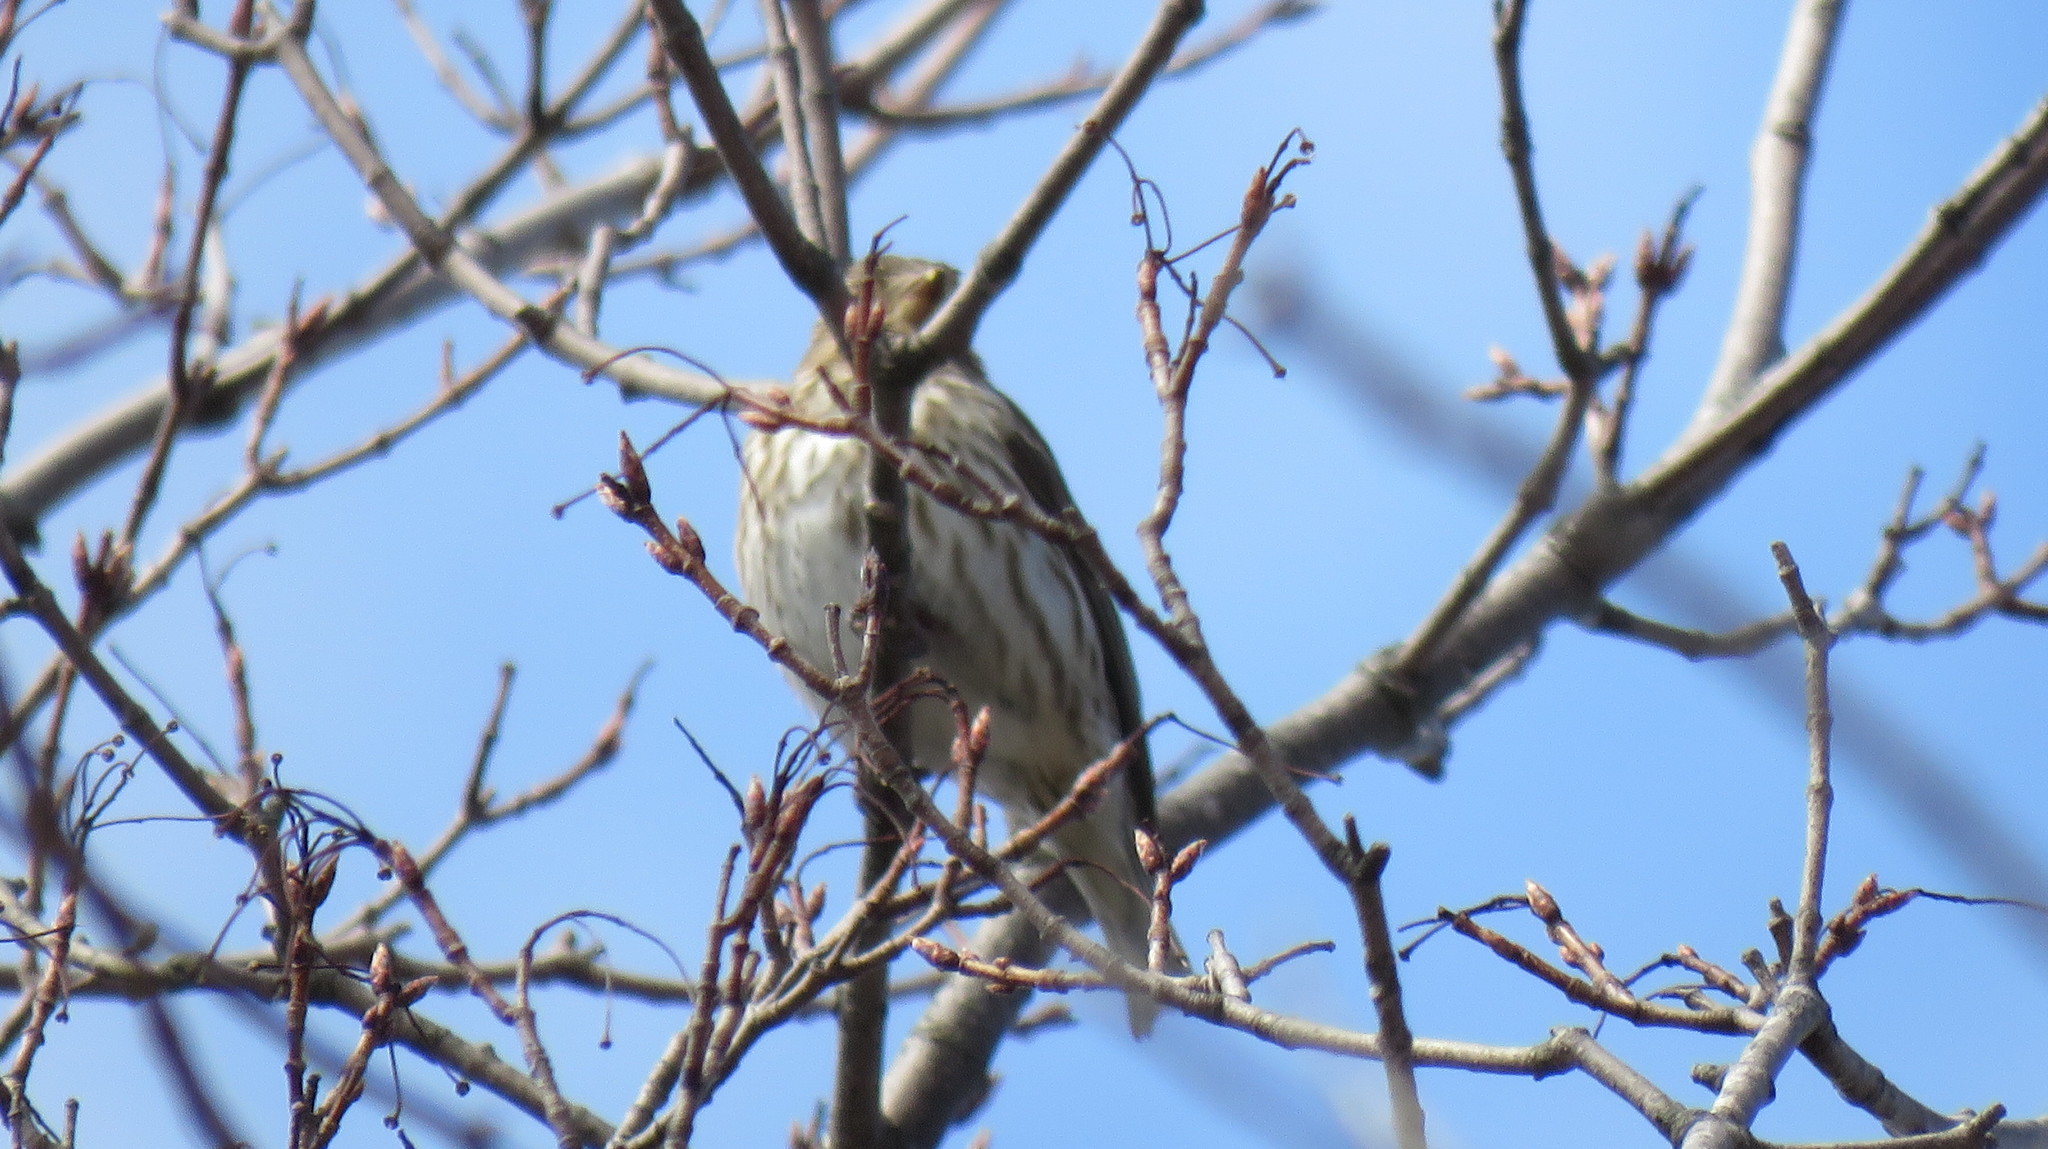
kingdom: Animalia
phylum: Chordata
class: Aves
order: Passeriformes
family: Fringillidae
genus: Haemorhous
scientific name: Haemorhous purpureus
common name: Purple finch
